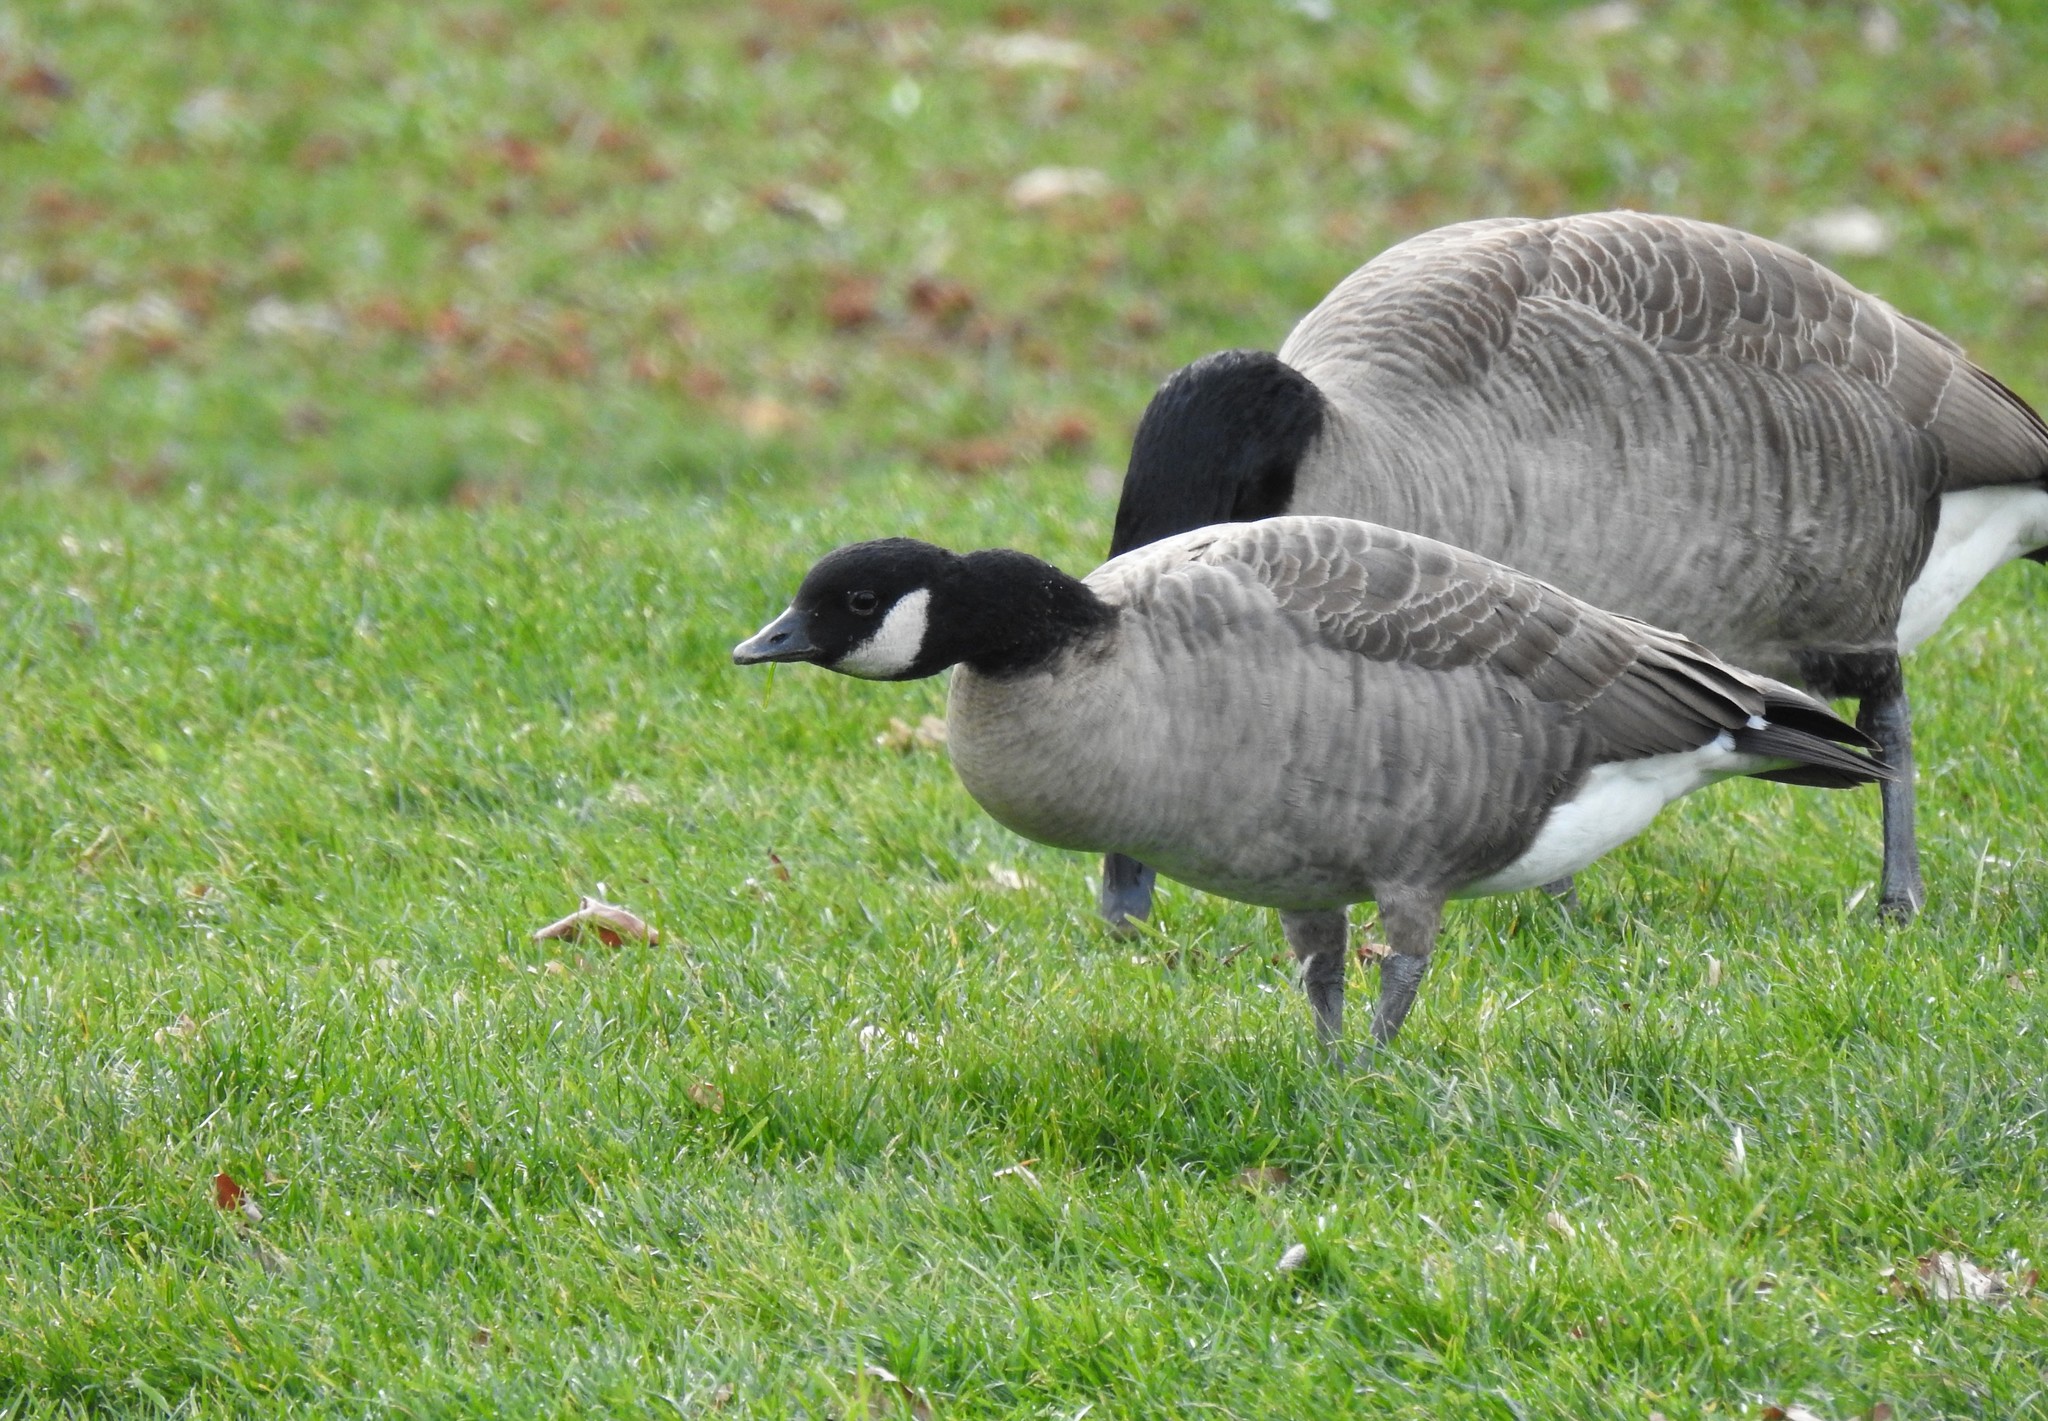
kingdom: Animalia
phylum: Chordata
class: Aves
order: Anseriformes
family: Anatidae
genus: Branta
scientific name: Branta hutchinsii
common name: Cackling goose
